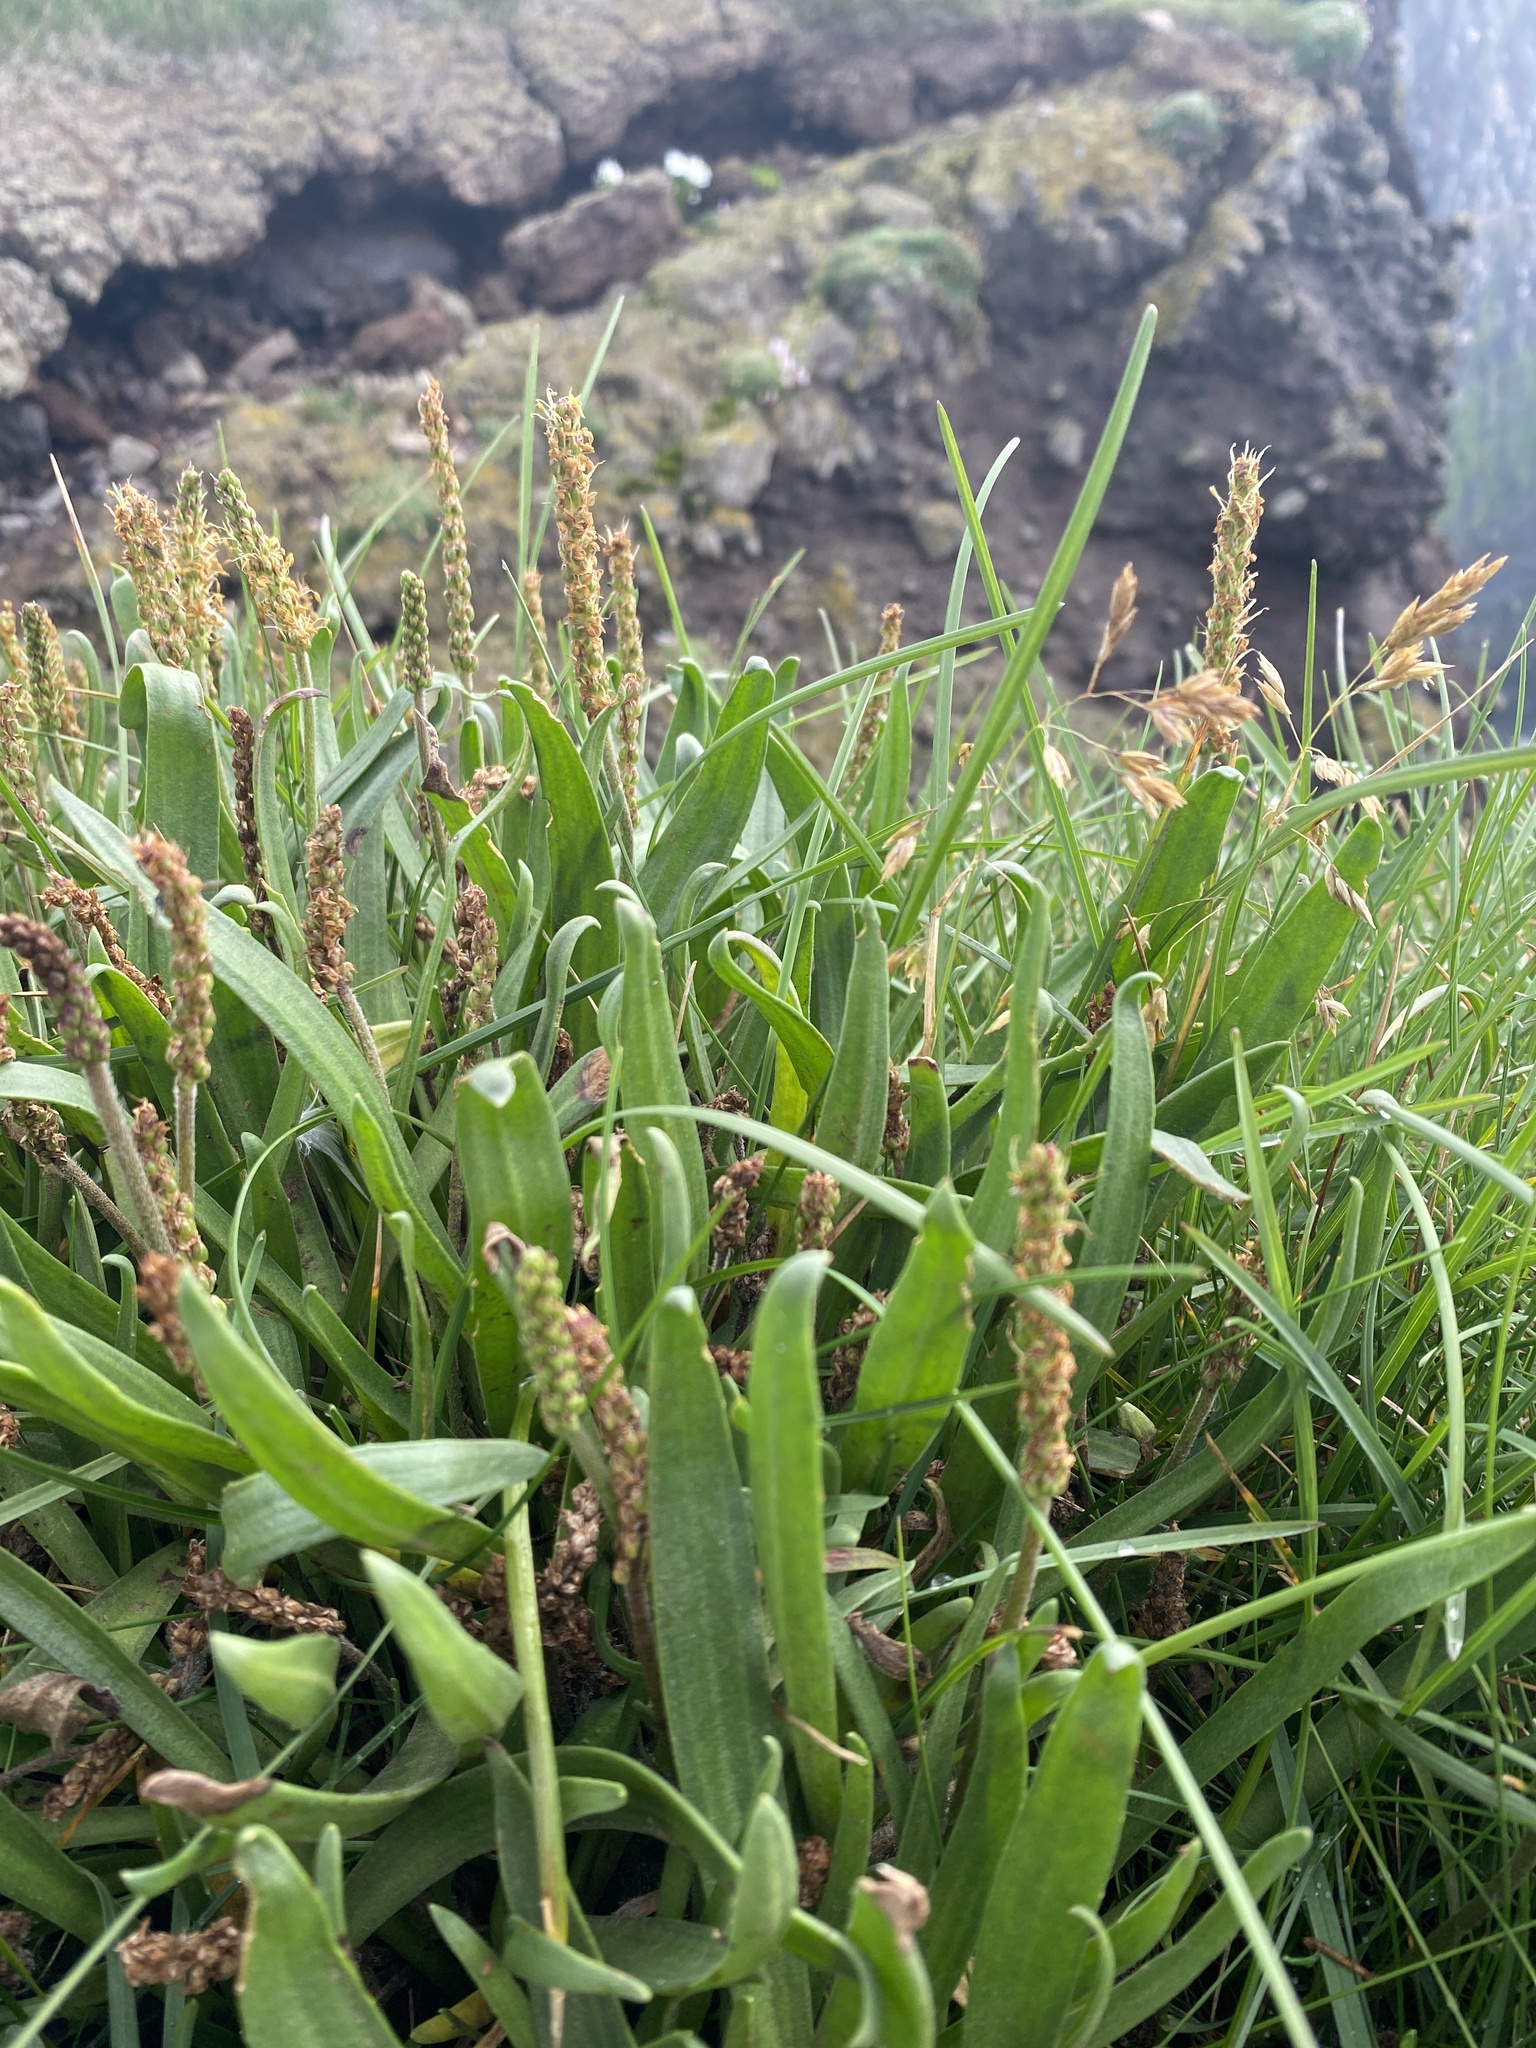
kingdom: Plantae
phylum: Tracheophyta
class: Magnoliopsida
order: Lamiales
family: Plantaginaceae
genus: Plantago
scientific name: Plantago maritima
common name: Sea plantain
